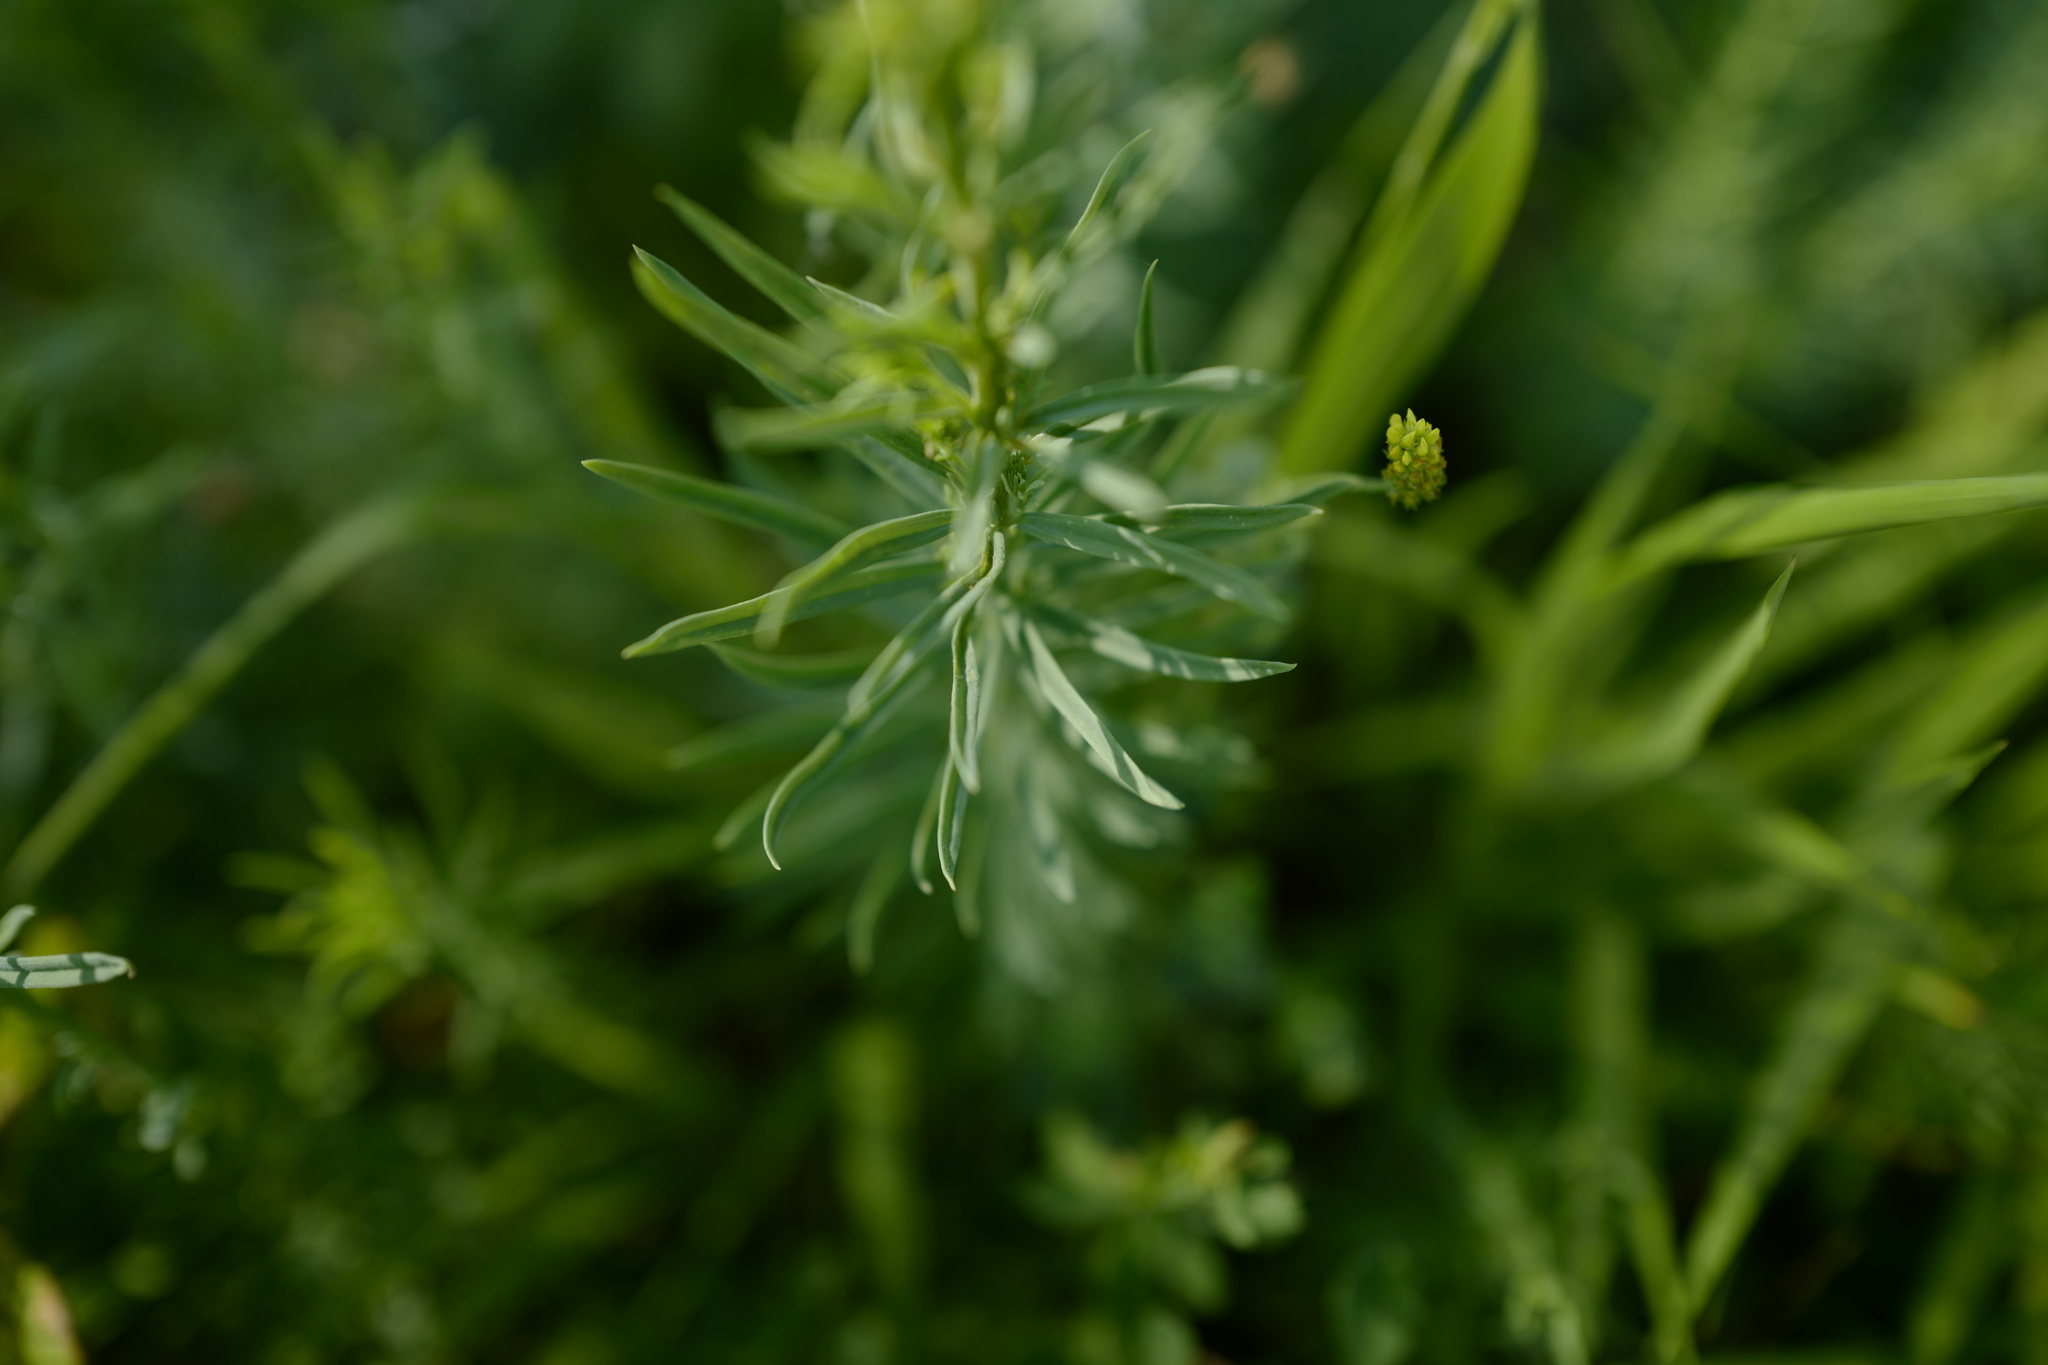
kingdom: Plantae
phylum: Tracheophyta
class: Magnoliopsida
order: Lamiales
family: Plantaginaceae
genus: Linaria
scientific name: Linaria vulgaris
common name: Butter and eggs
